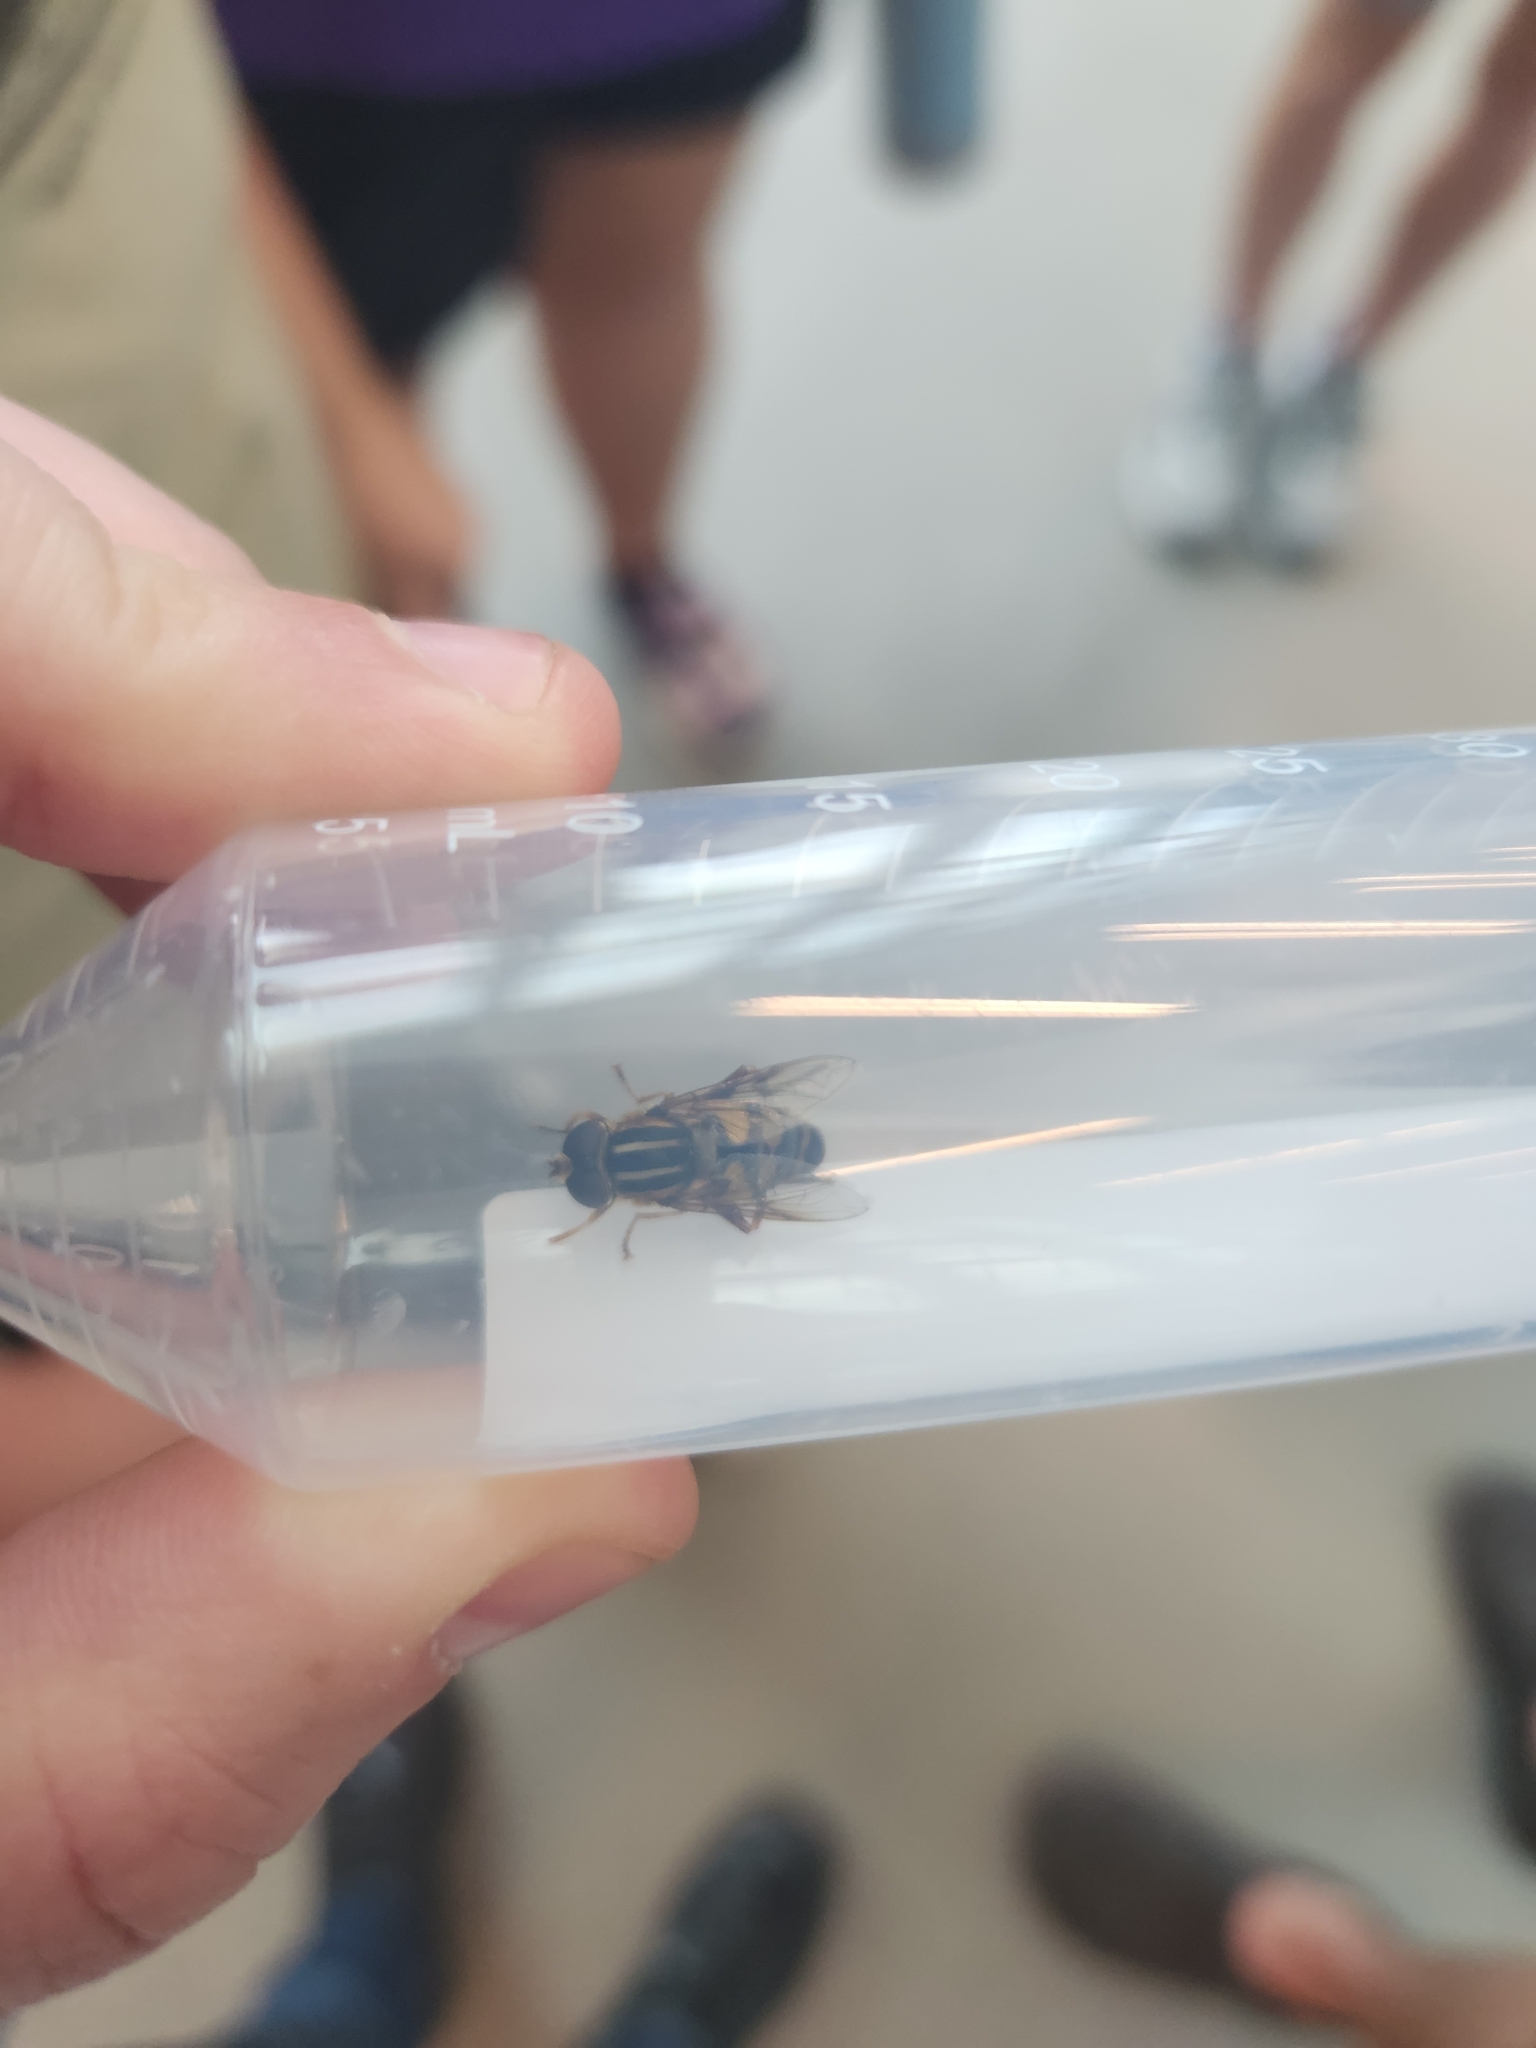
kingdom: Animalia
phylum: Arthropoda
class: Insecta
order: Diptera
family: Syrphidae
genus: Helophilus
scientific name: Helophilus fasciatus
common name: Narrow-headed marsh fly
